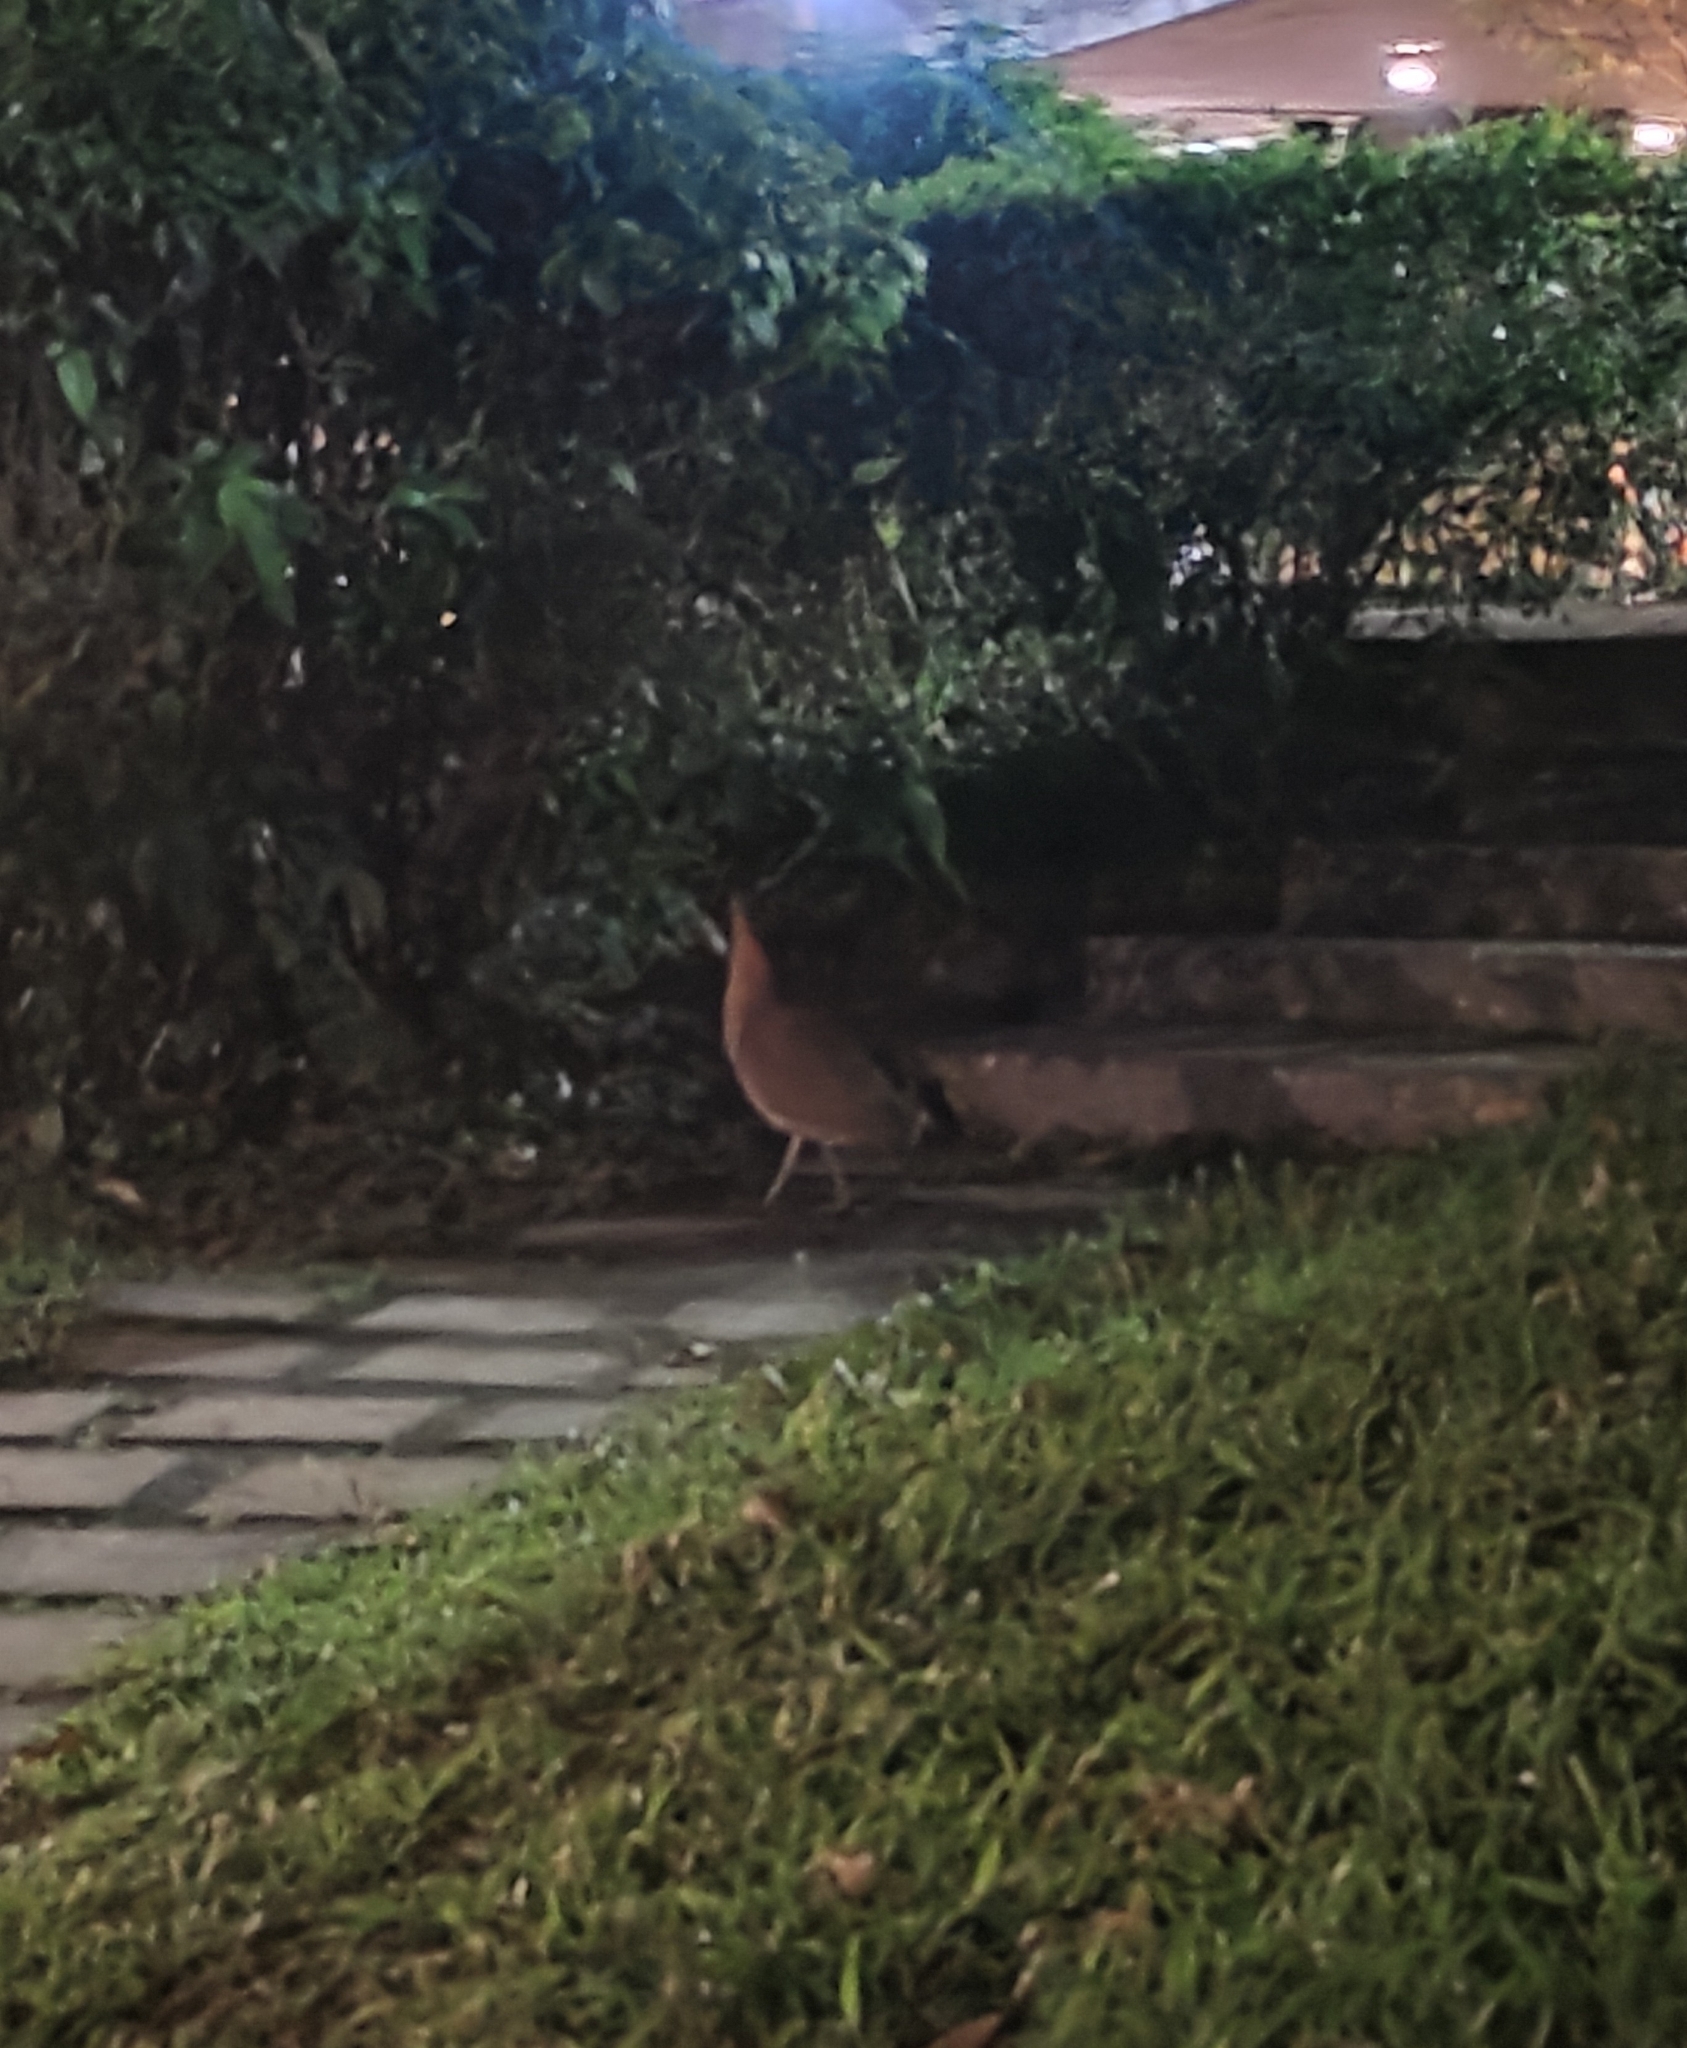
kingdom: Animalia
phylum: Chordata
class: Aves
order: Pelecaniformes
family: Ardeidae
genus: Gorsachius
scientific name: Gorsachius melanolophus
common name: Malayan night heron
